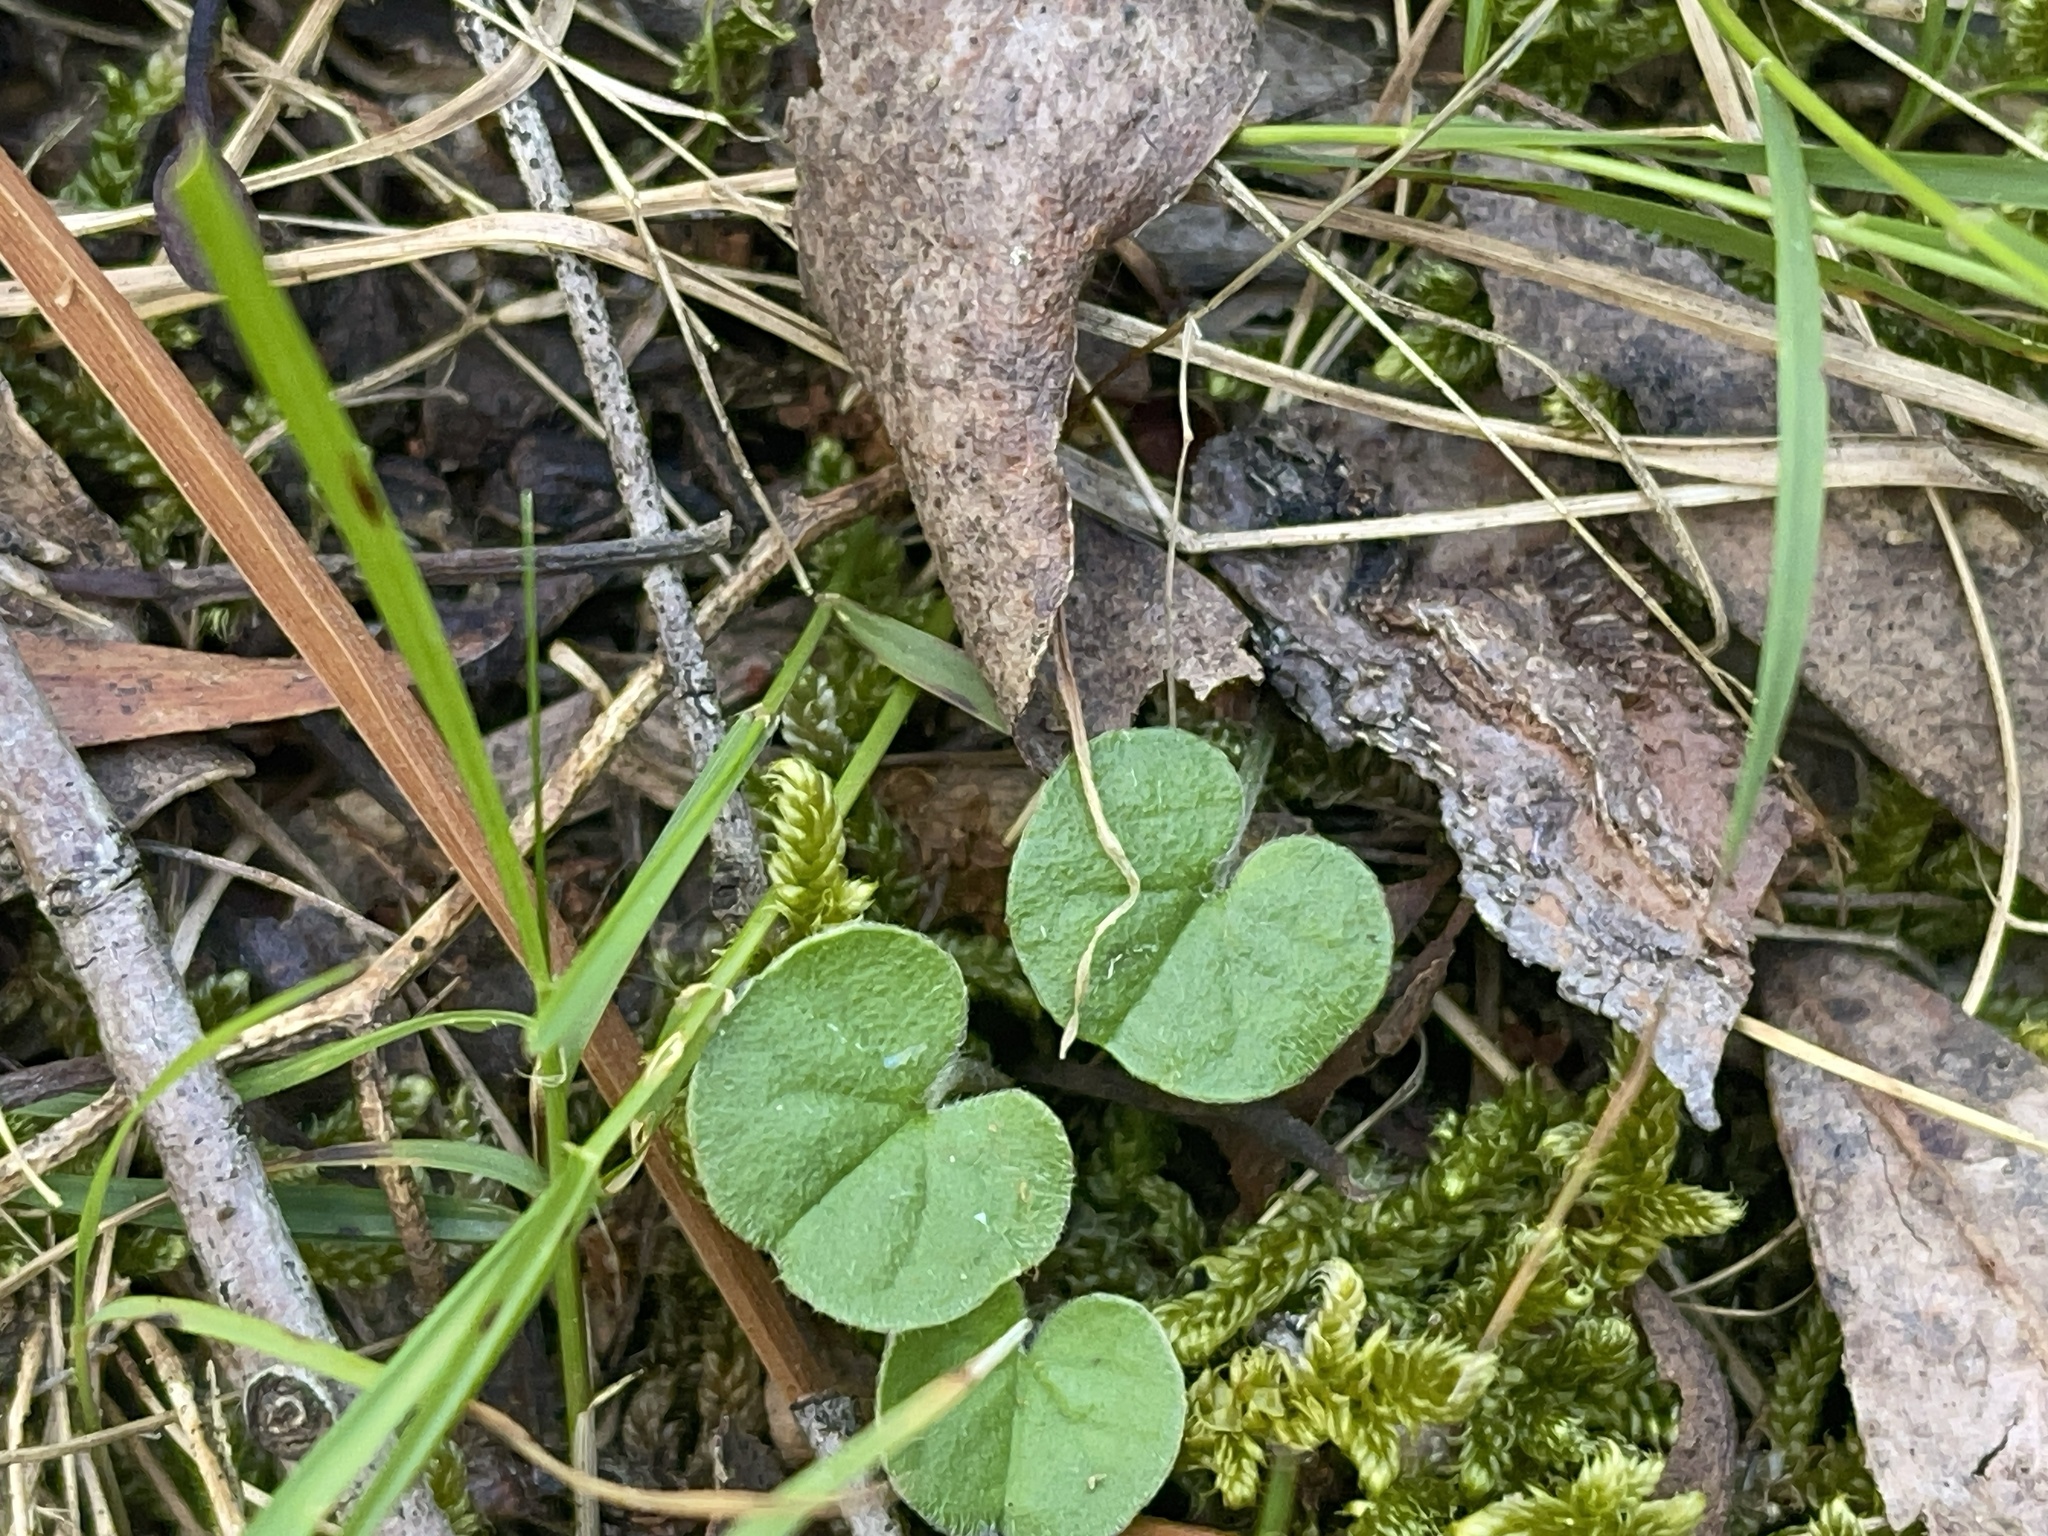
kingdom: Plantae
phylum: Tracheophyta
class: Magnoliopsida
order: Solanales
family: Convolvulaceae
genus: Dichondra
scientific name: Dichondra repens
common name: Kidneyweed
